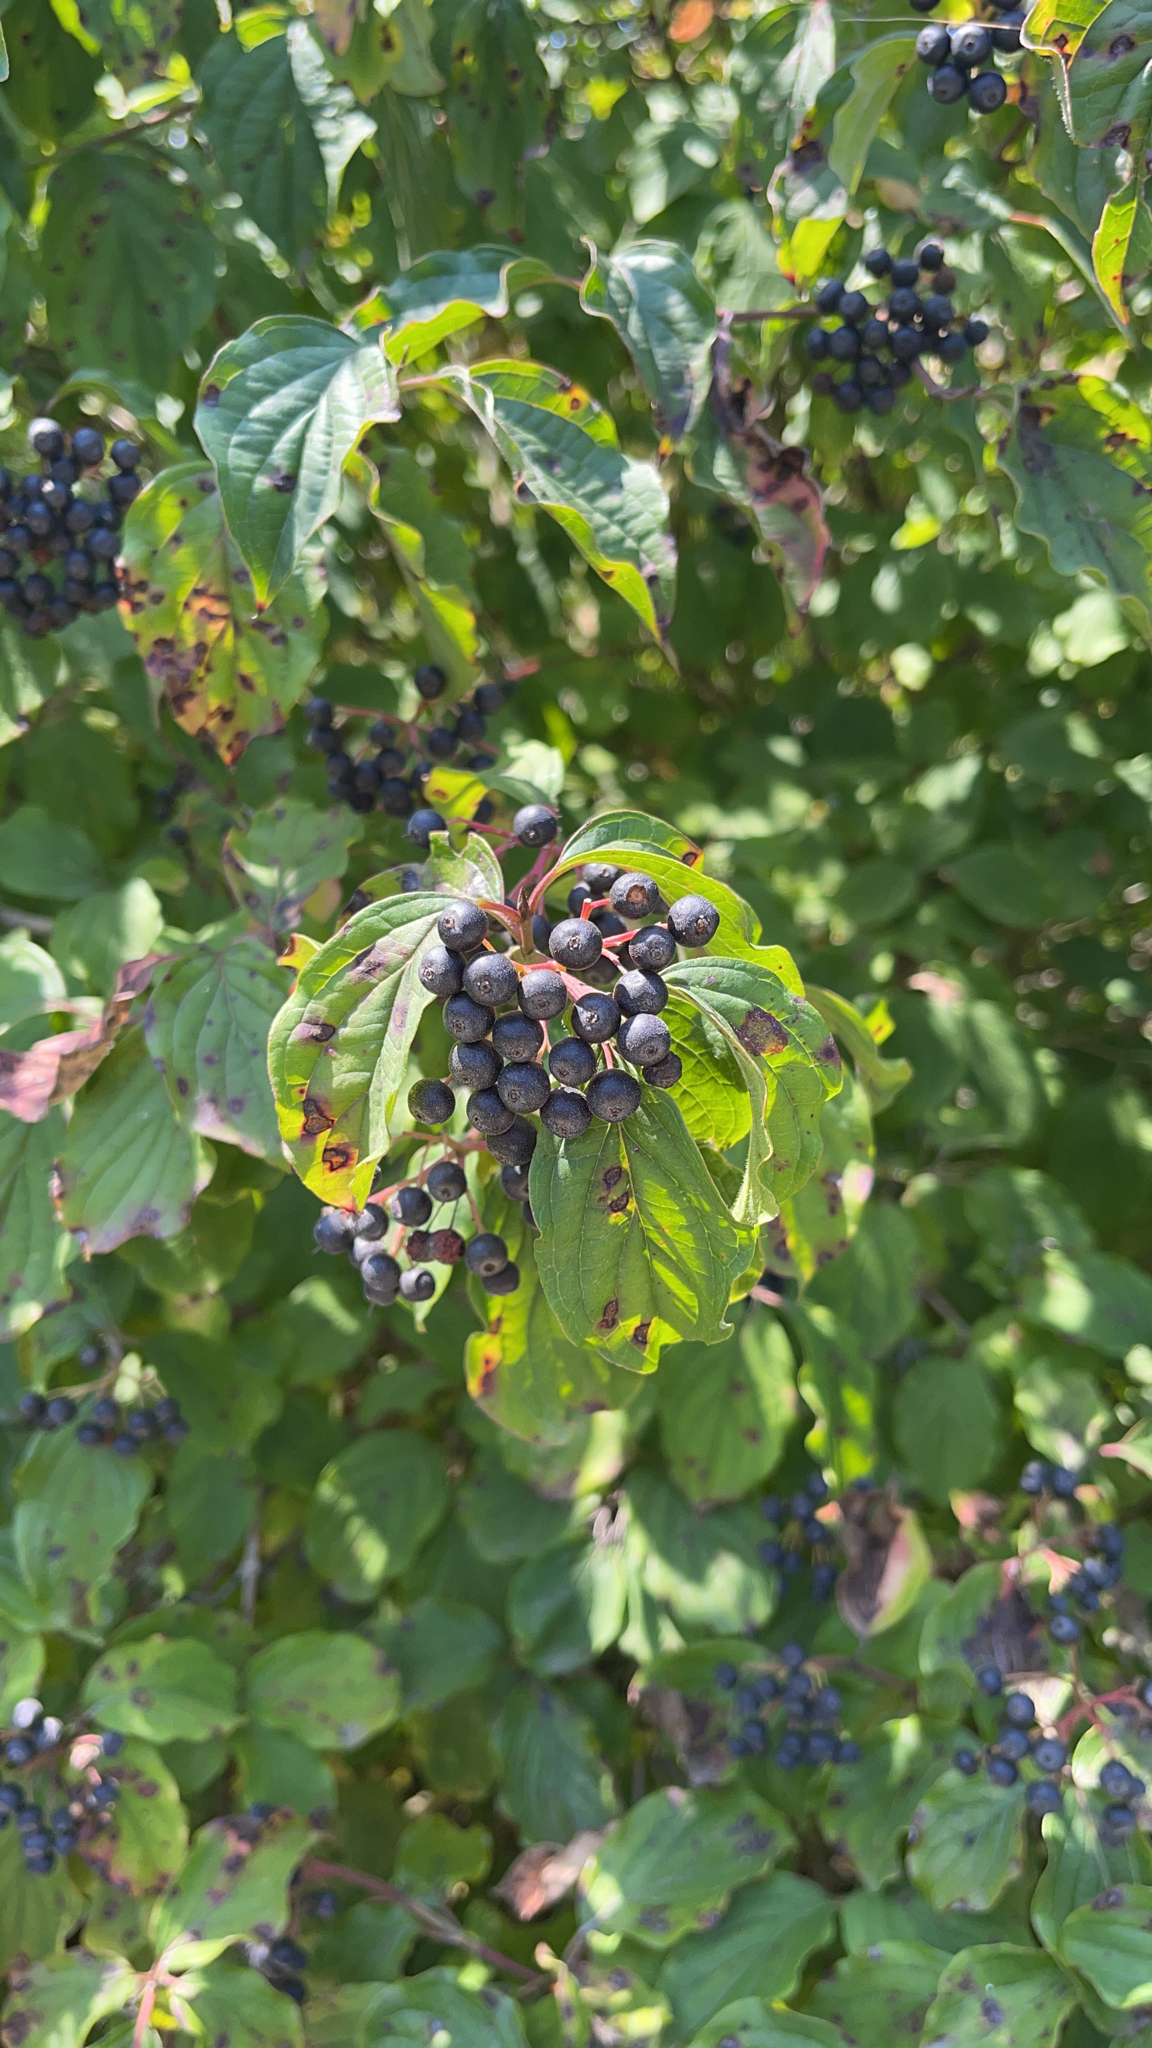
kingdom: Plantae
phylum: Tracheophyta
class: Magnoliopsida
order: Cornales
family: Cornaceae
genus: Cornus
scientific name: Cornus sanguinea
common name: Dogwood
